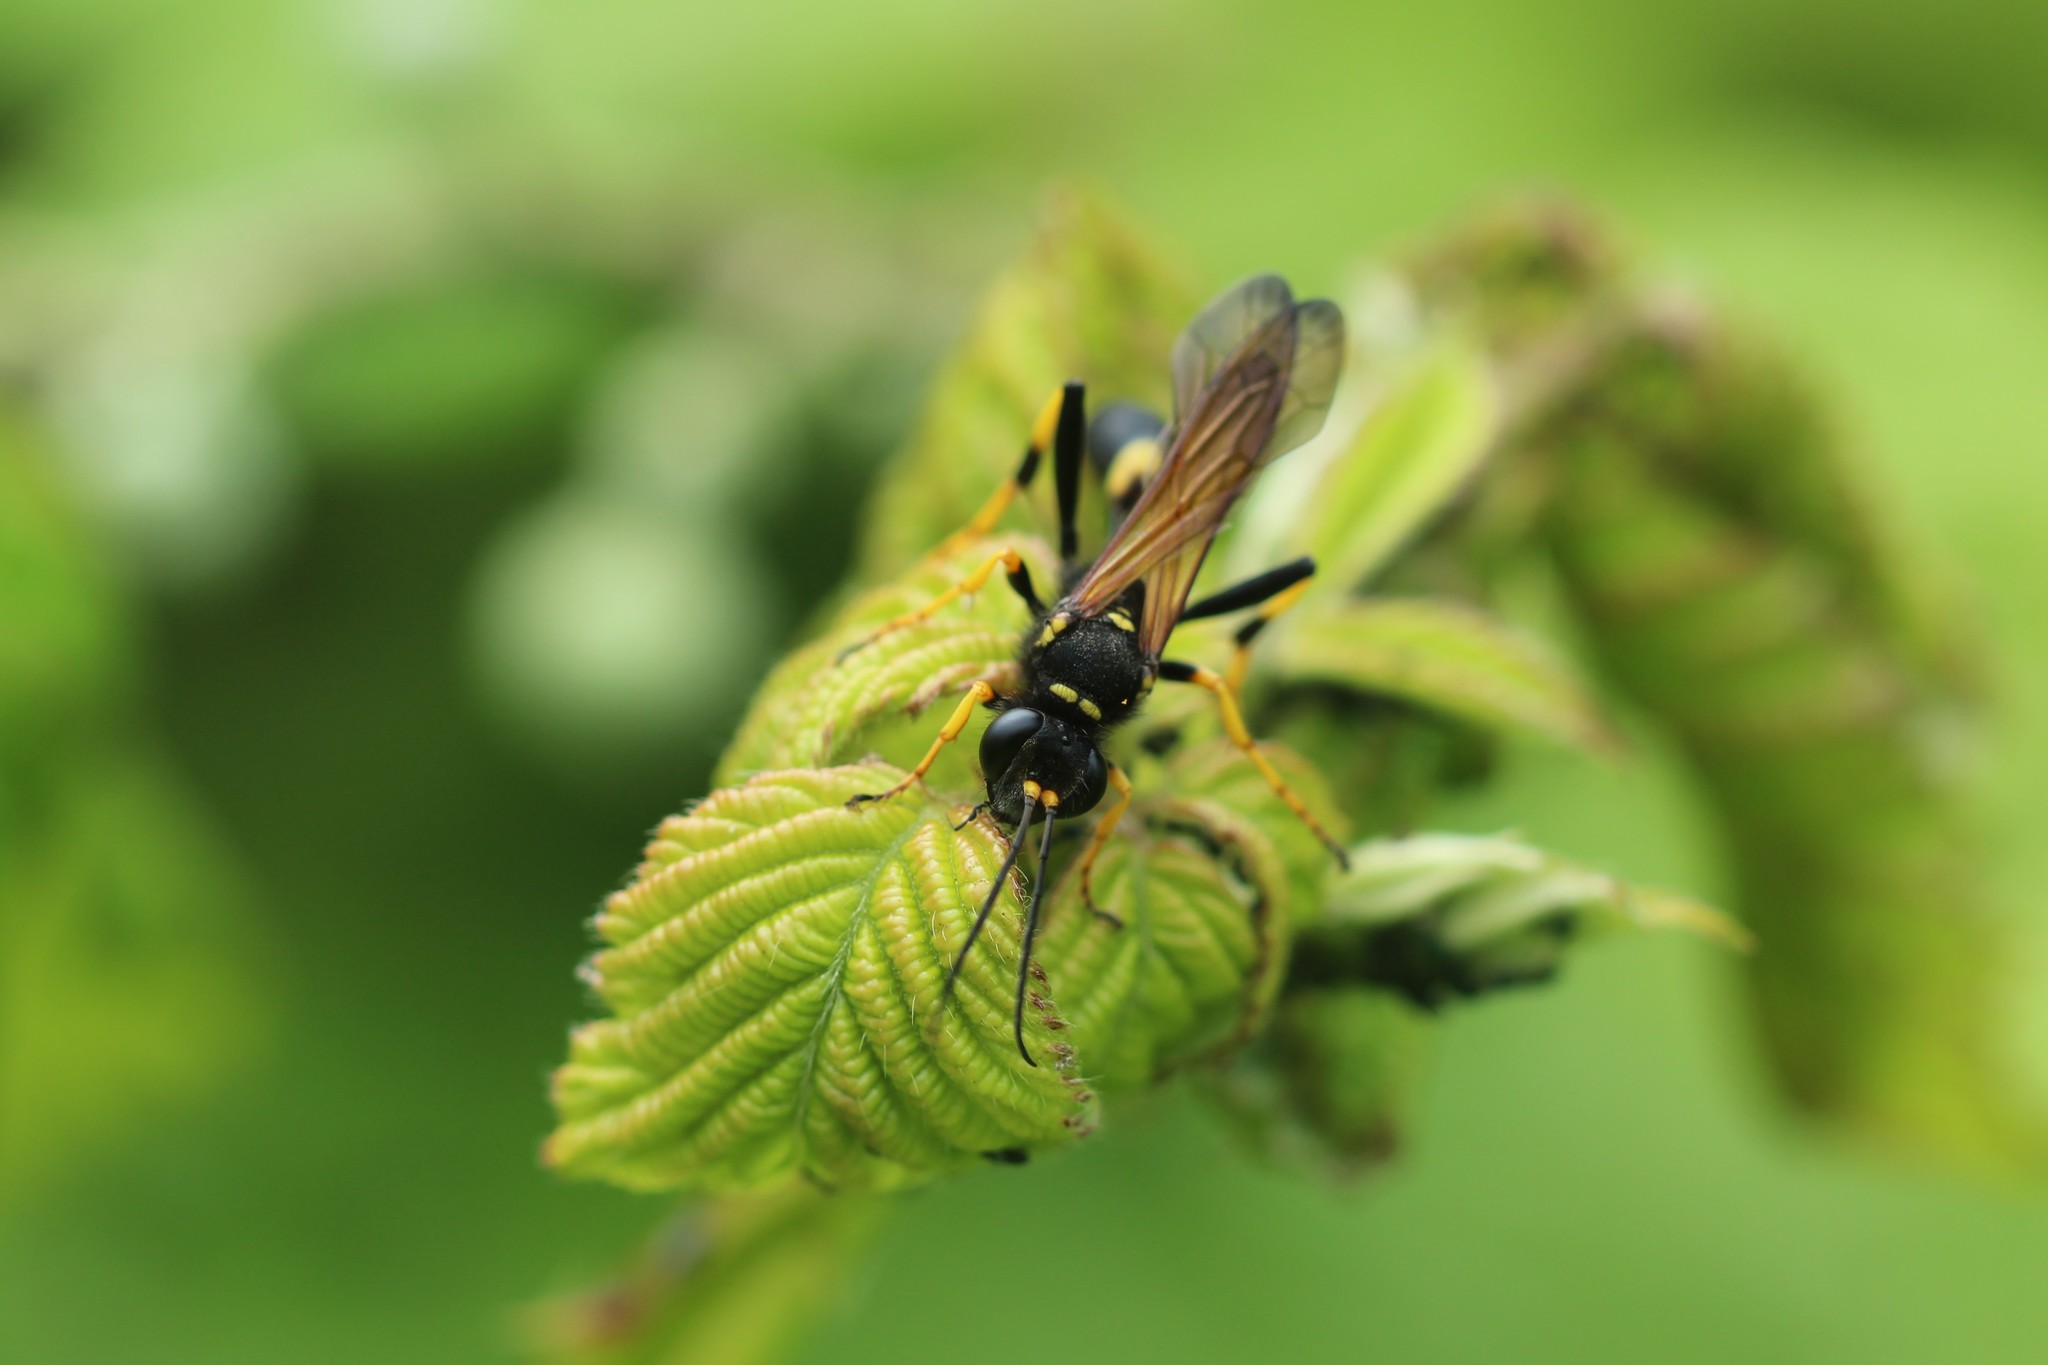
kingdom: Animalia
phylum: Arthropoda
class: Insecta
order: Hymenoptera
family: Sphecidae
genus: Sceliphron
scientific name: Sceliphron caementarium
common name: Mud dauber
